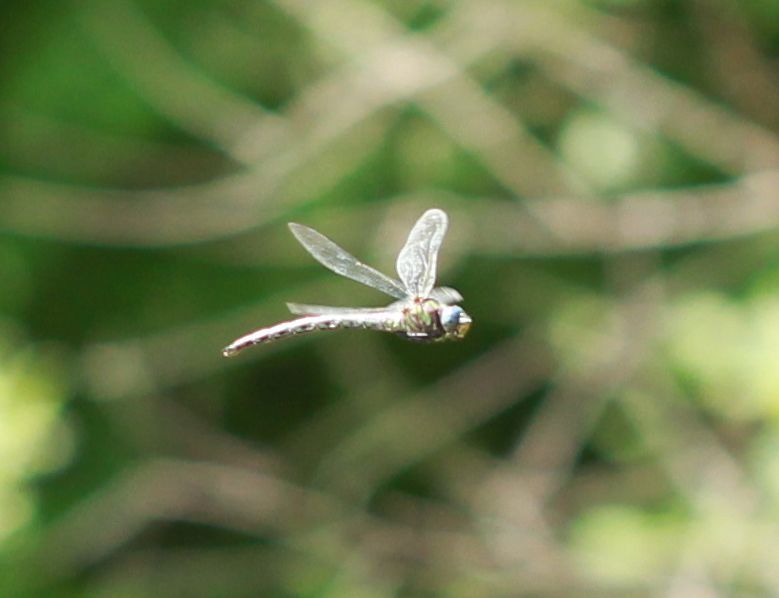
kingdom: Animalia
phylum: Arthropoda
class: Insecta
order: Odonata
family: Aeshnidae
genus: Nasiaeschna
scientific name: Nasiaeschna pentacantha
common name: Cyrano darner
